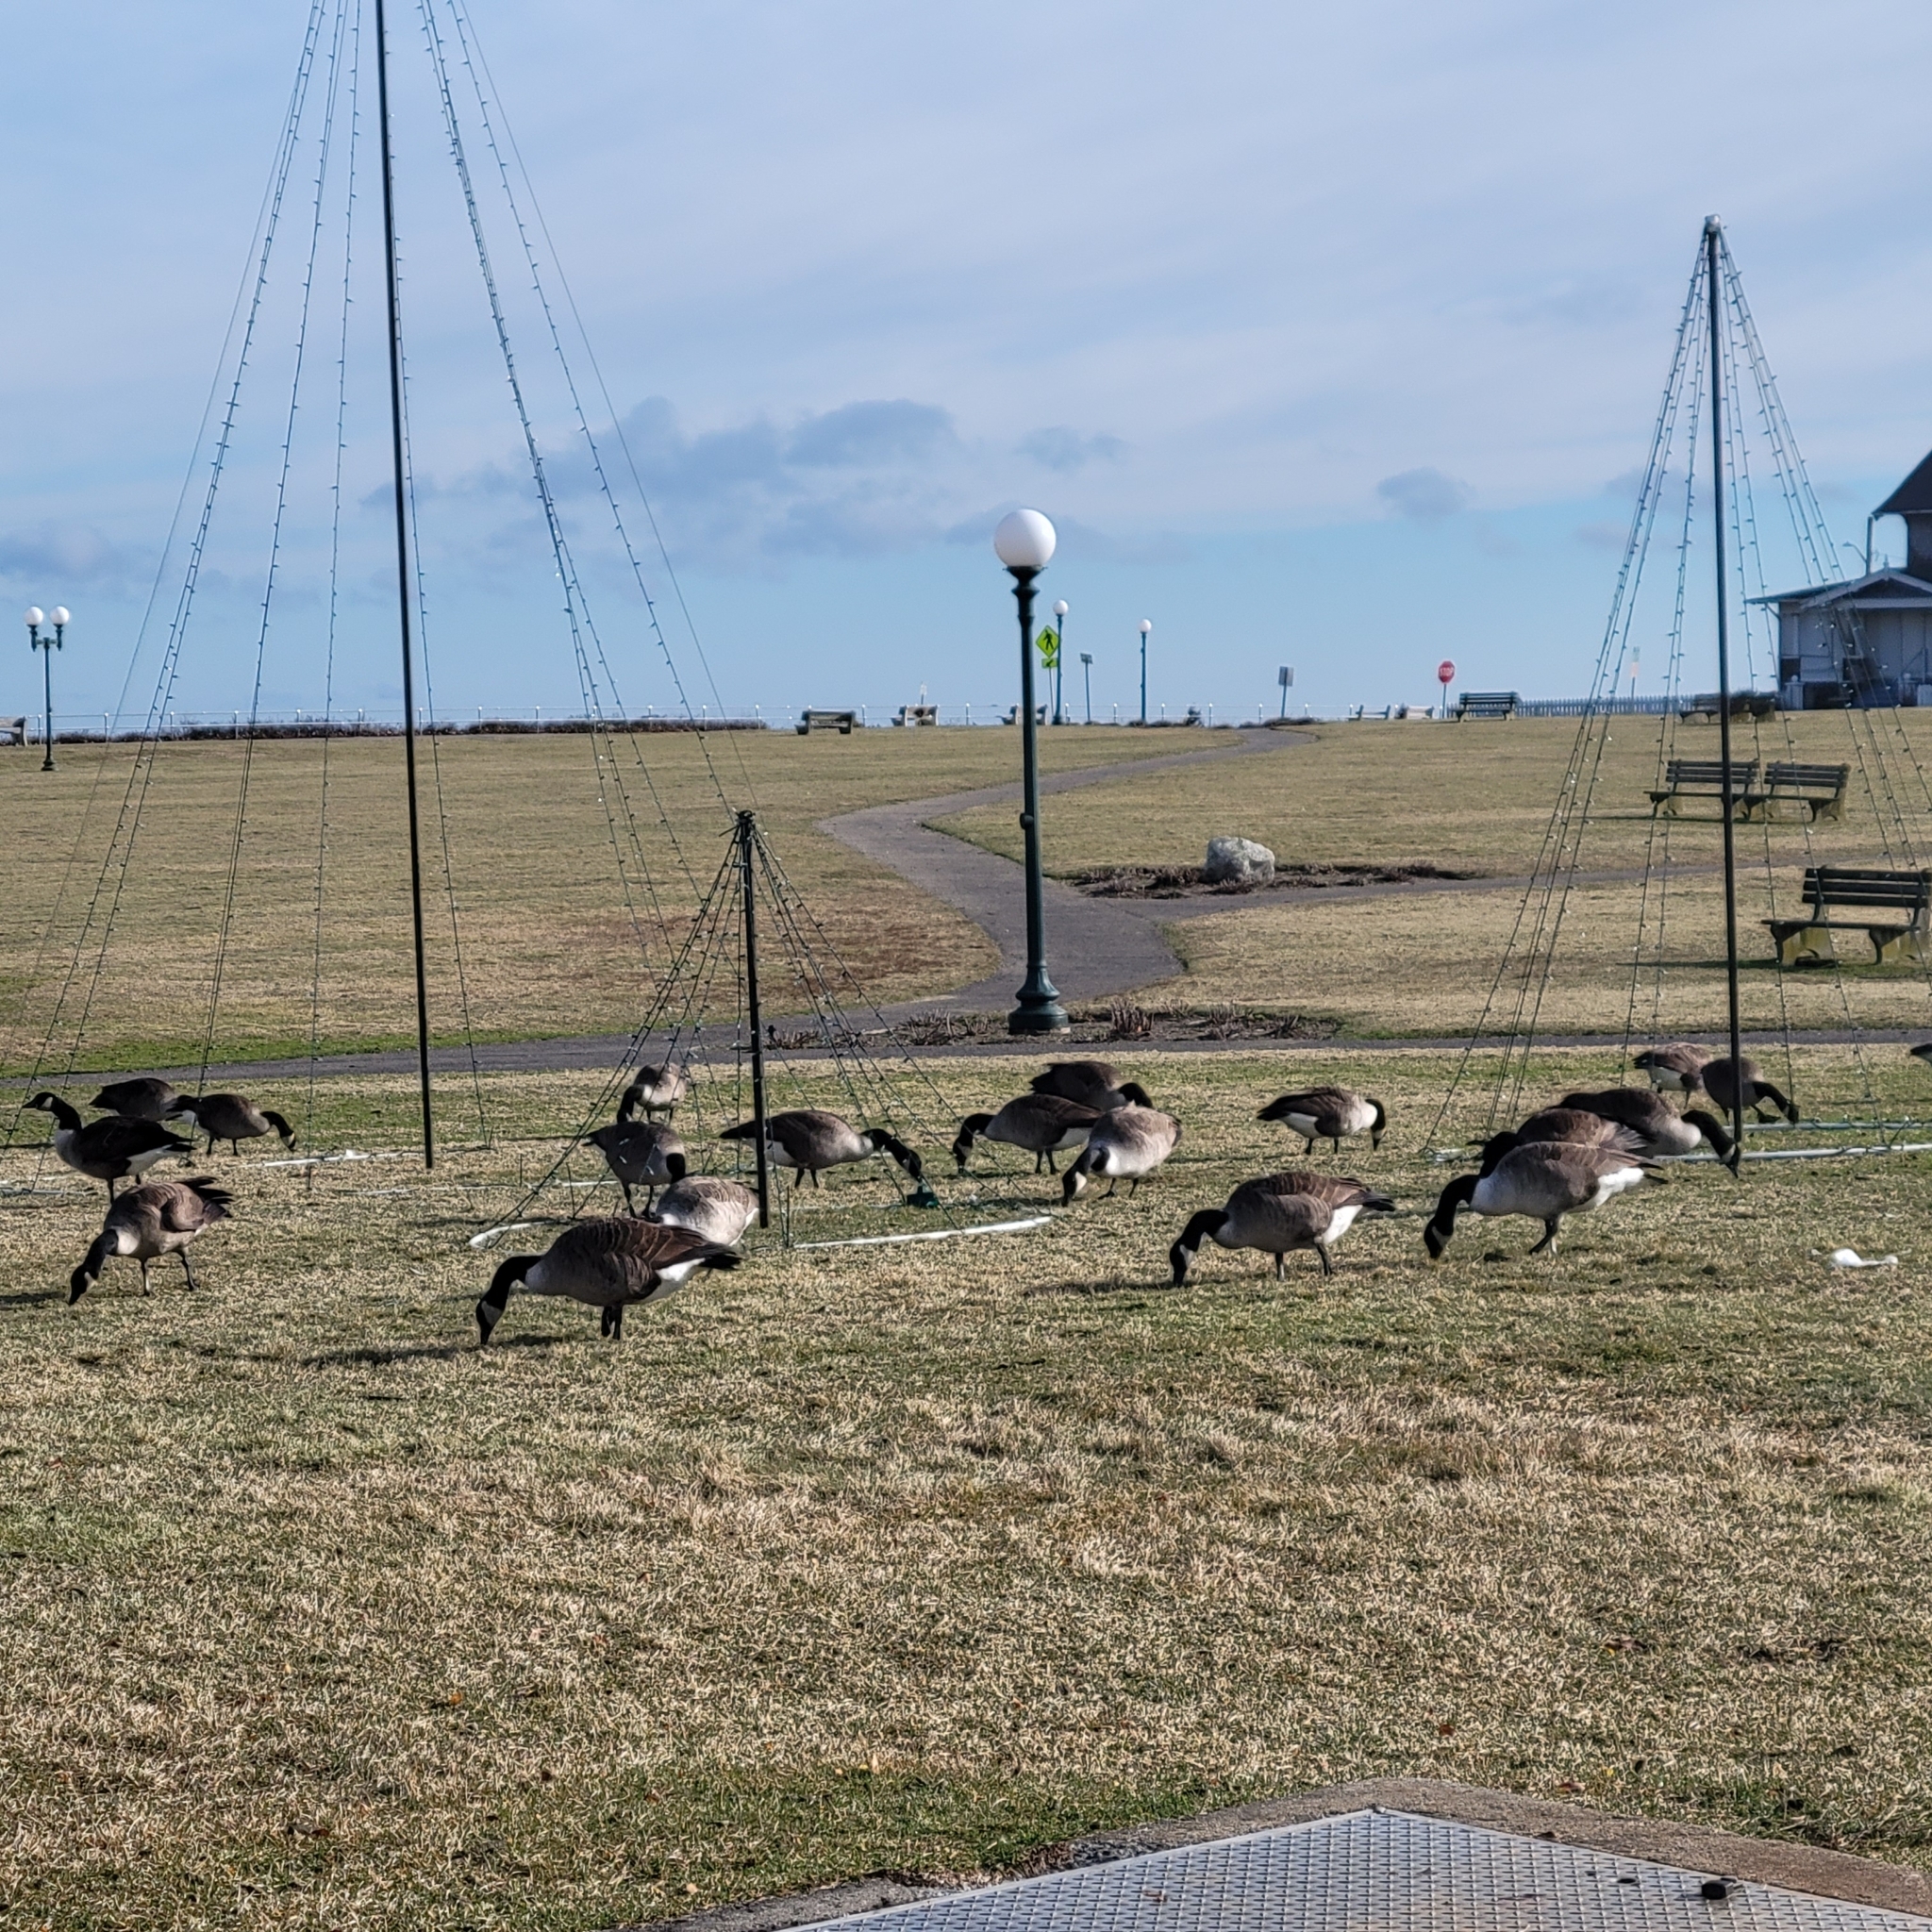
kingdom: Animalia
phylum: Chordata
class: Aves
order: Anseriformes
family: Anatidae
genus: Branta
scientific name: Branta canadensis
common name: Canada goose
